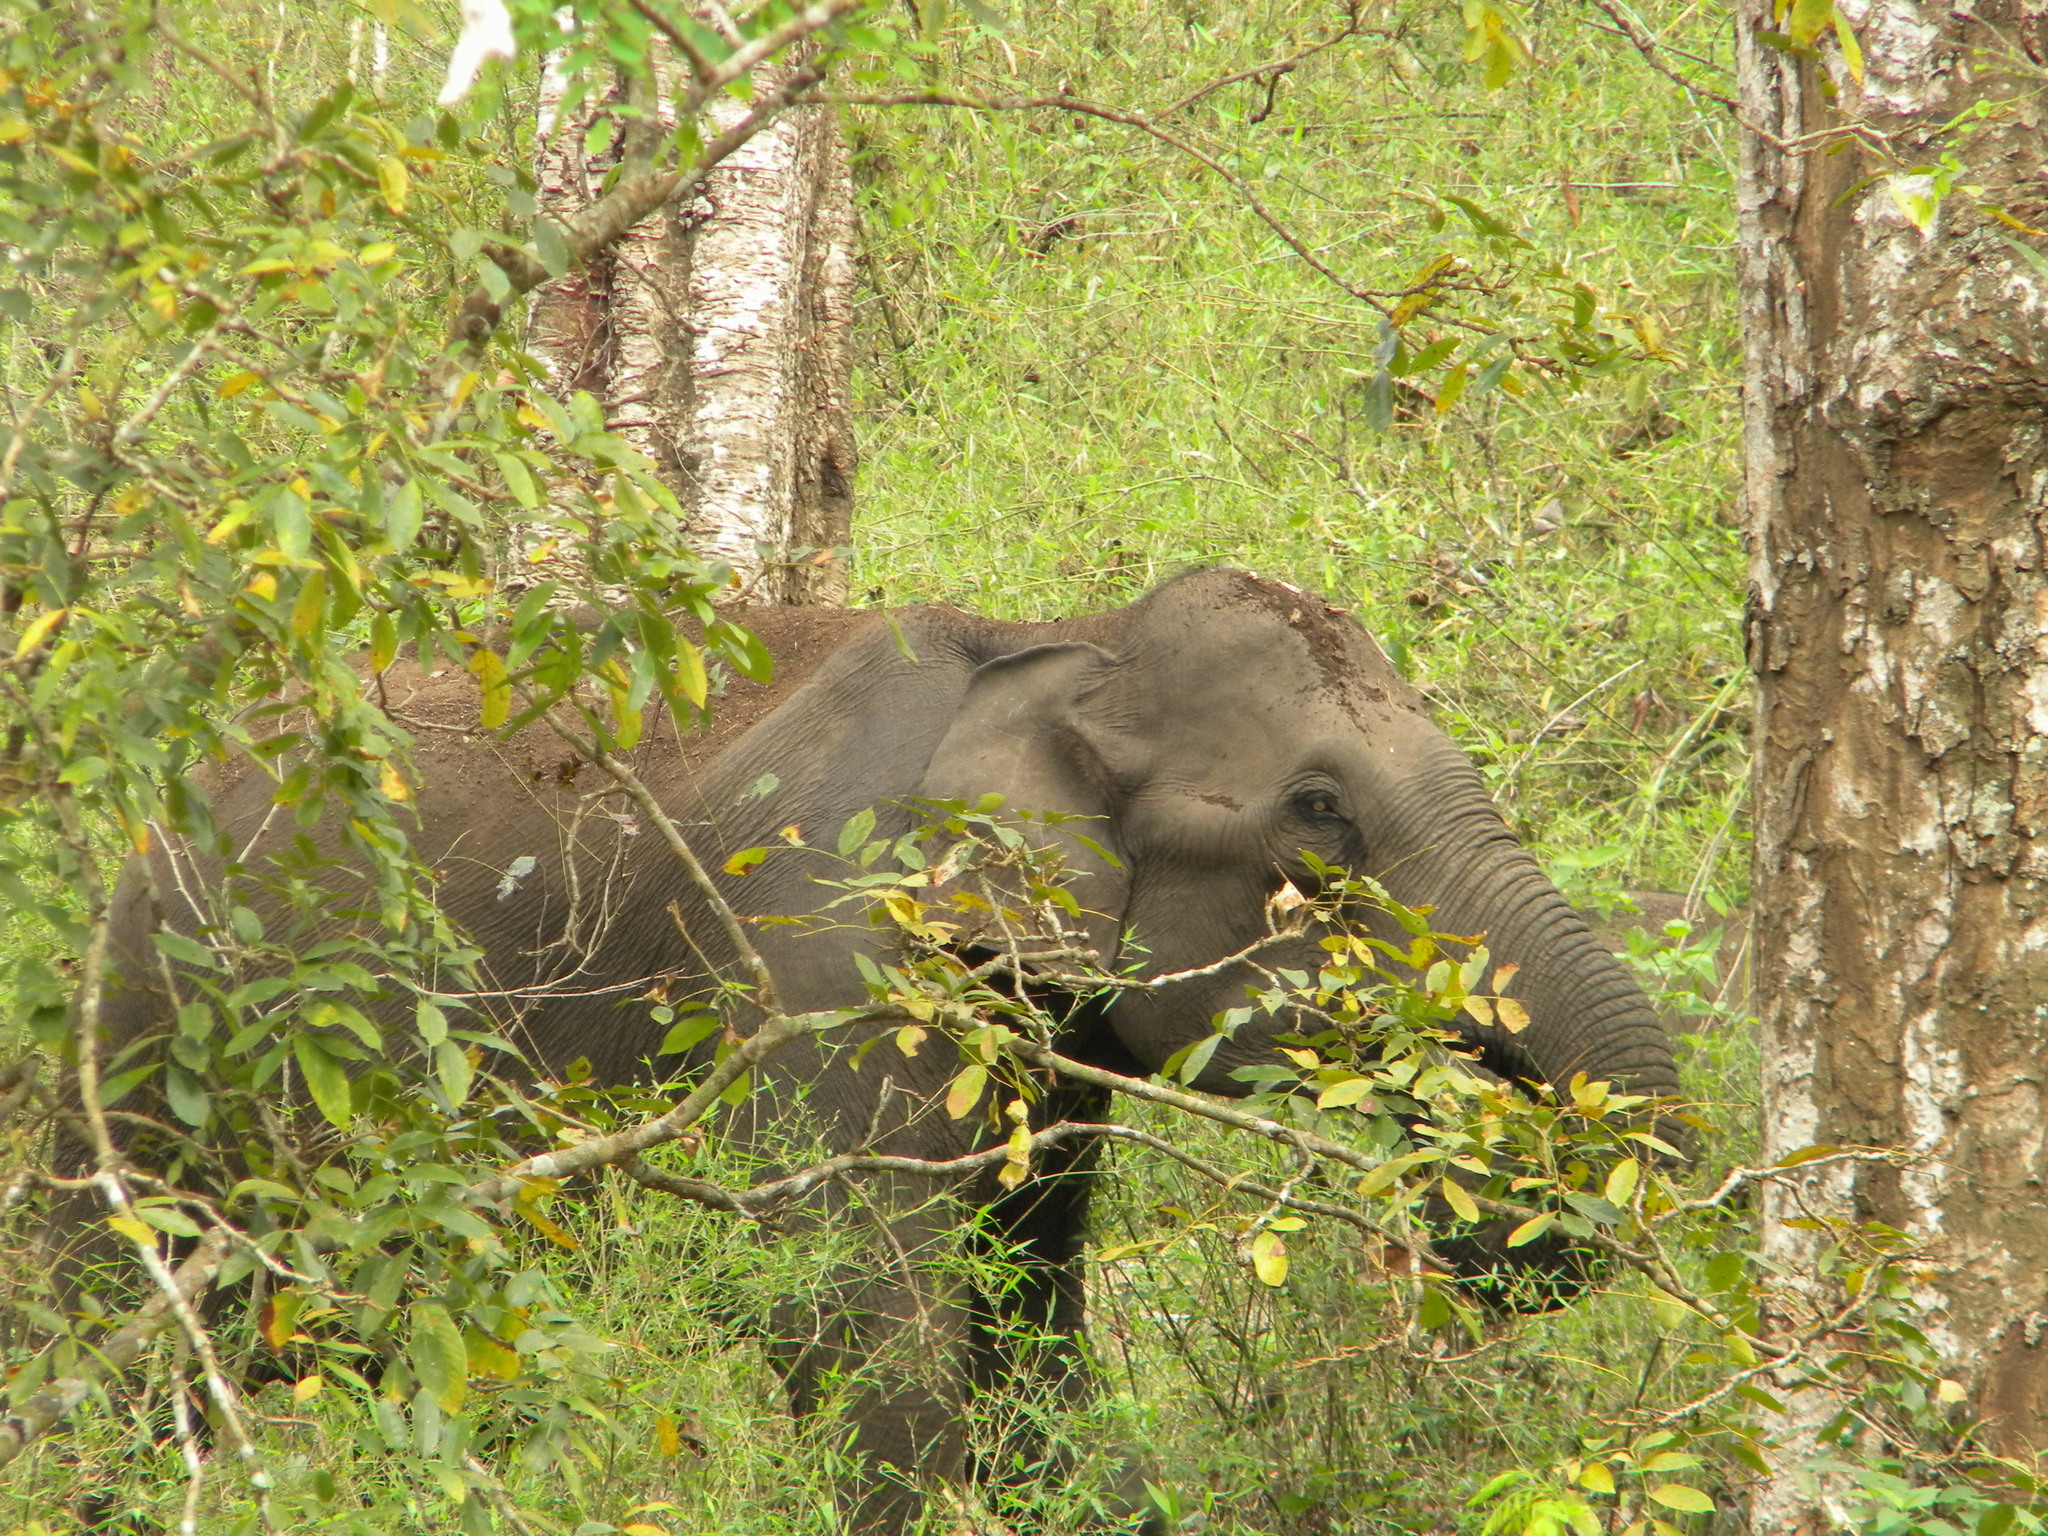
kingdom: Animalia
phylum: Chordata
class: Mammalia
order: Proboscidea
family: Elephantidae
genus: Elephas
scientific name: Elephas maximus
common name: Asian elephant
